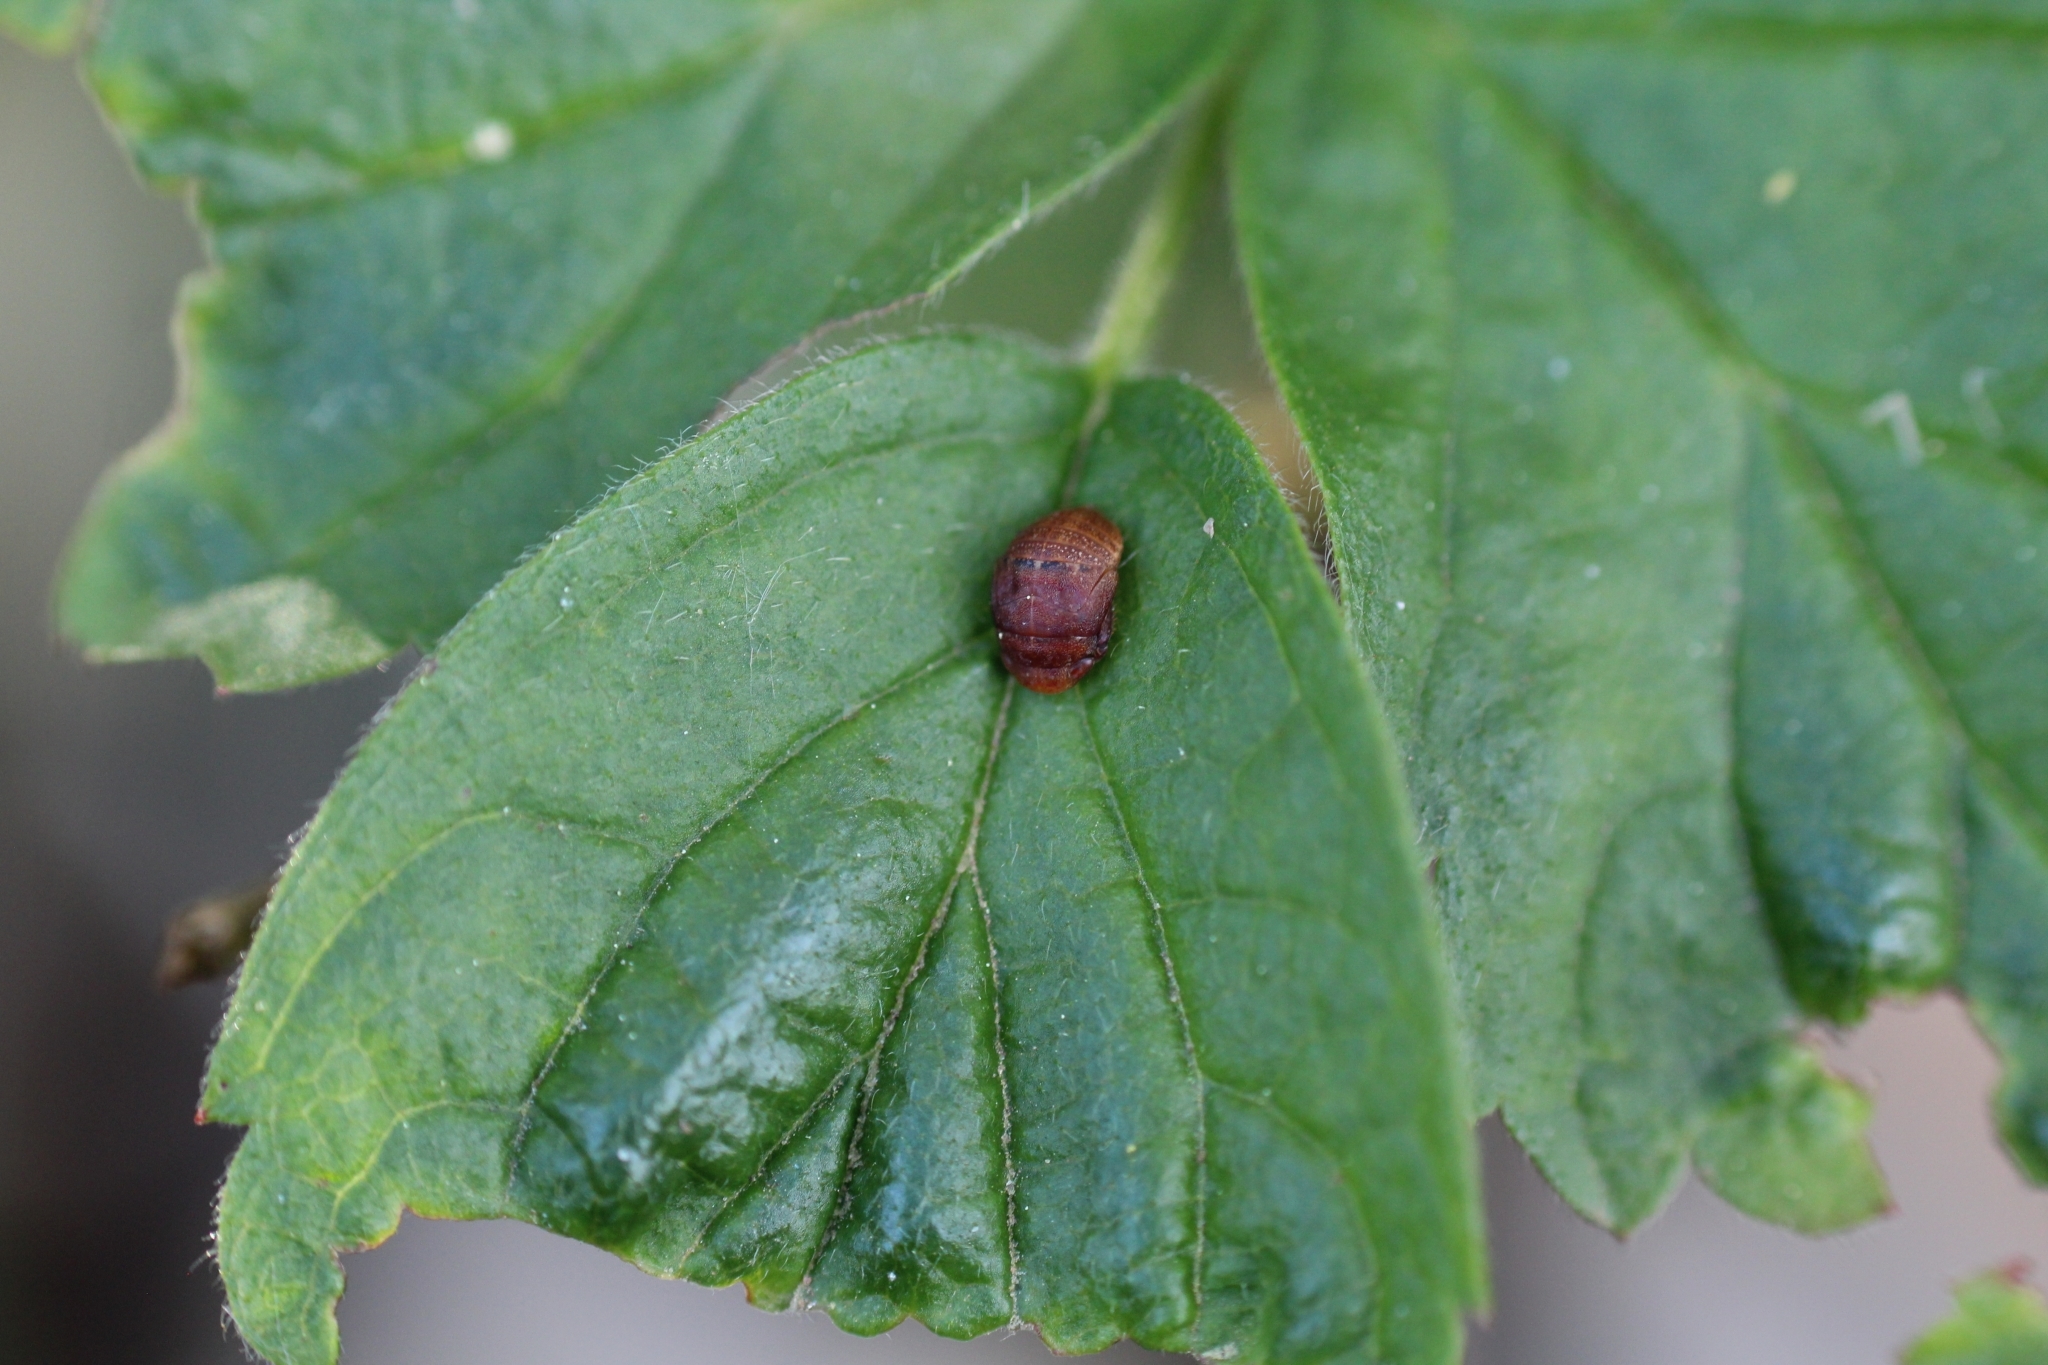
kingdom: Animalia
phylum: Arthropoda
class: Insecta
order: Hemiptera
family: Cicadellidae
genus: Penthimia
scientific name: Penthimia nigra
